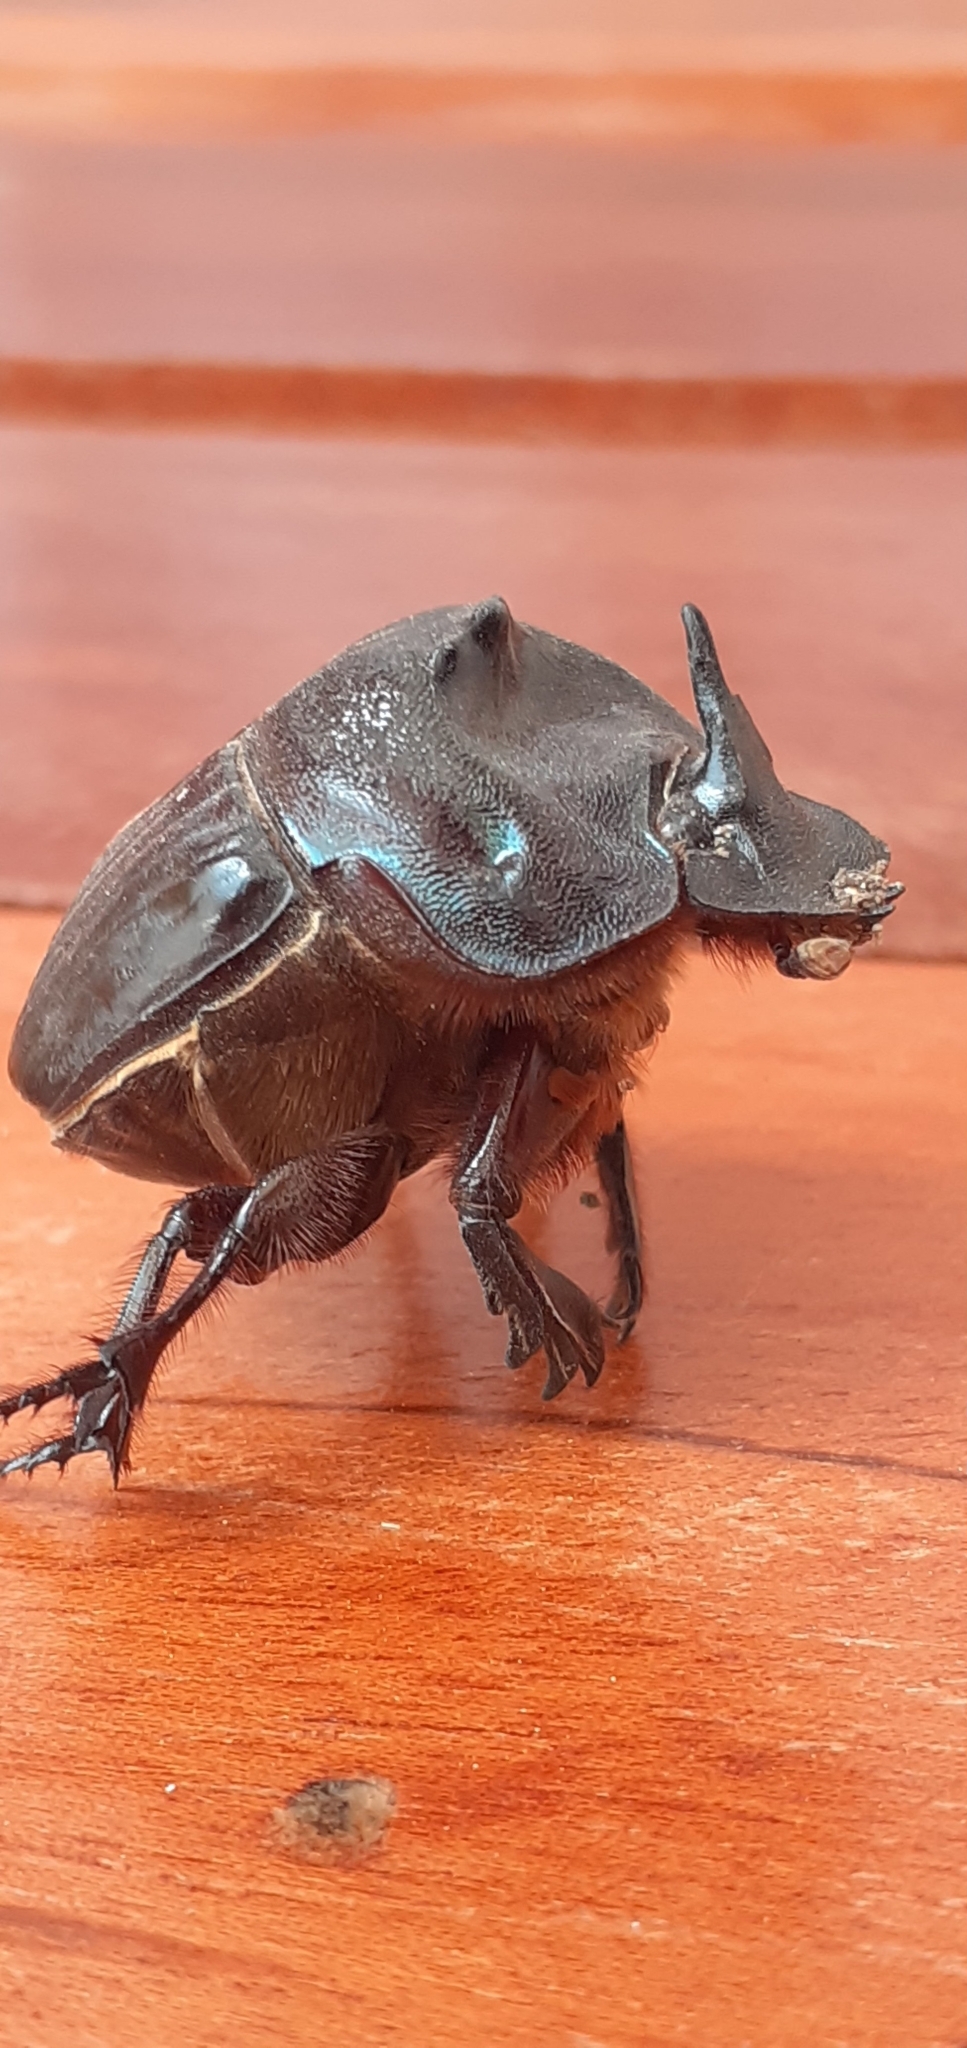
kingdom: Animalia
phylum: Arthropoda
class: Insecta
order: Coleoptera
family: Scarabaeidae
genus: Coprophanaeus
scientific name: Coprophanaeus cyanescens
